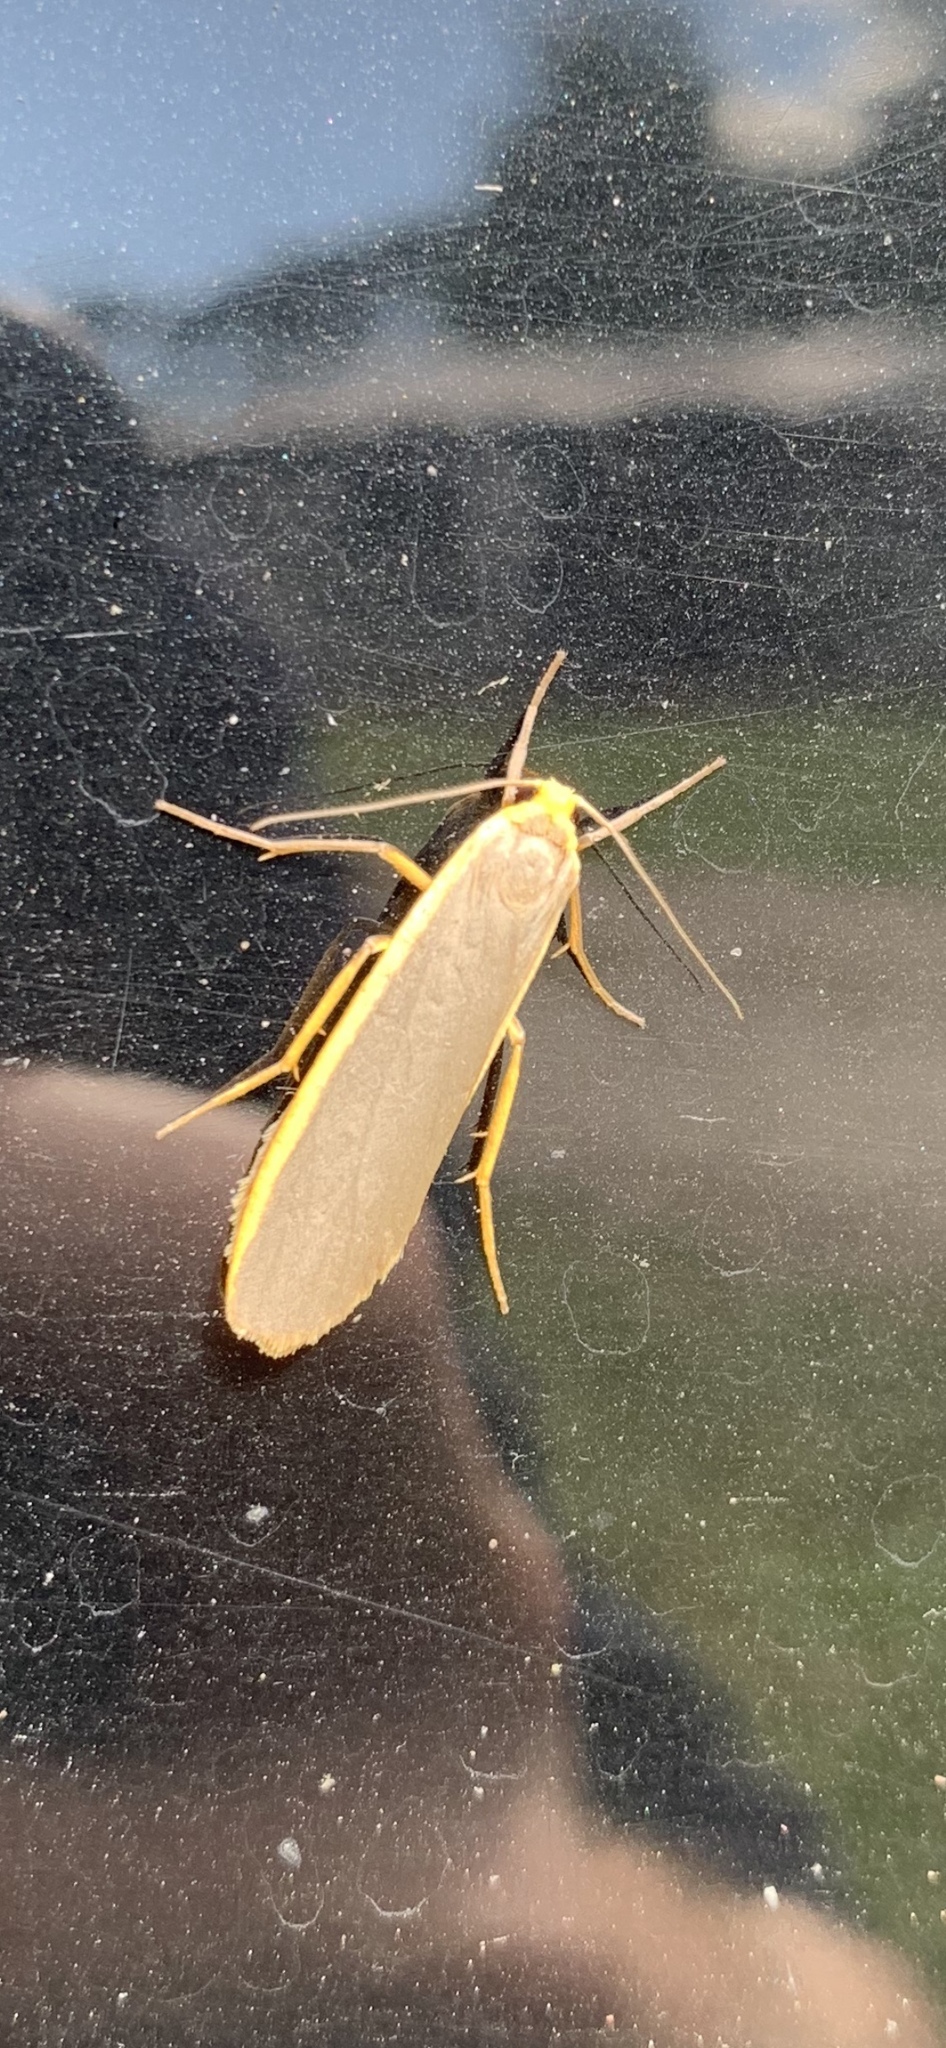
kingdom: Animalia
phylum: Arthropoda
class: Insecta
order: Lepidoptera
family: Erebidae
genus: Nyea
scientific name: Nyea lurideola
